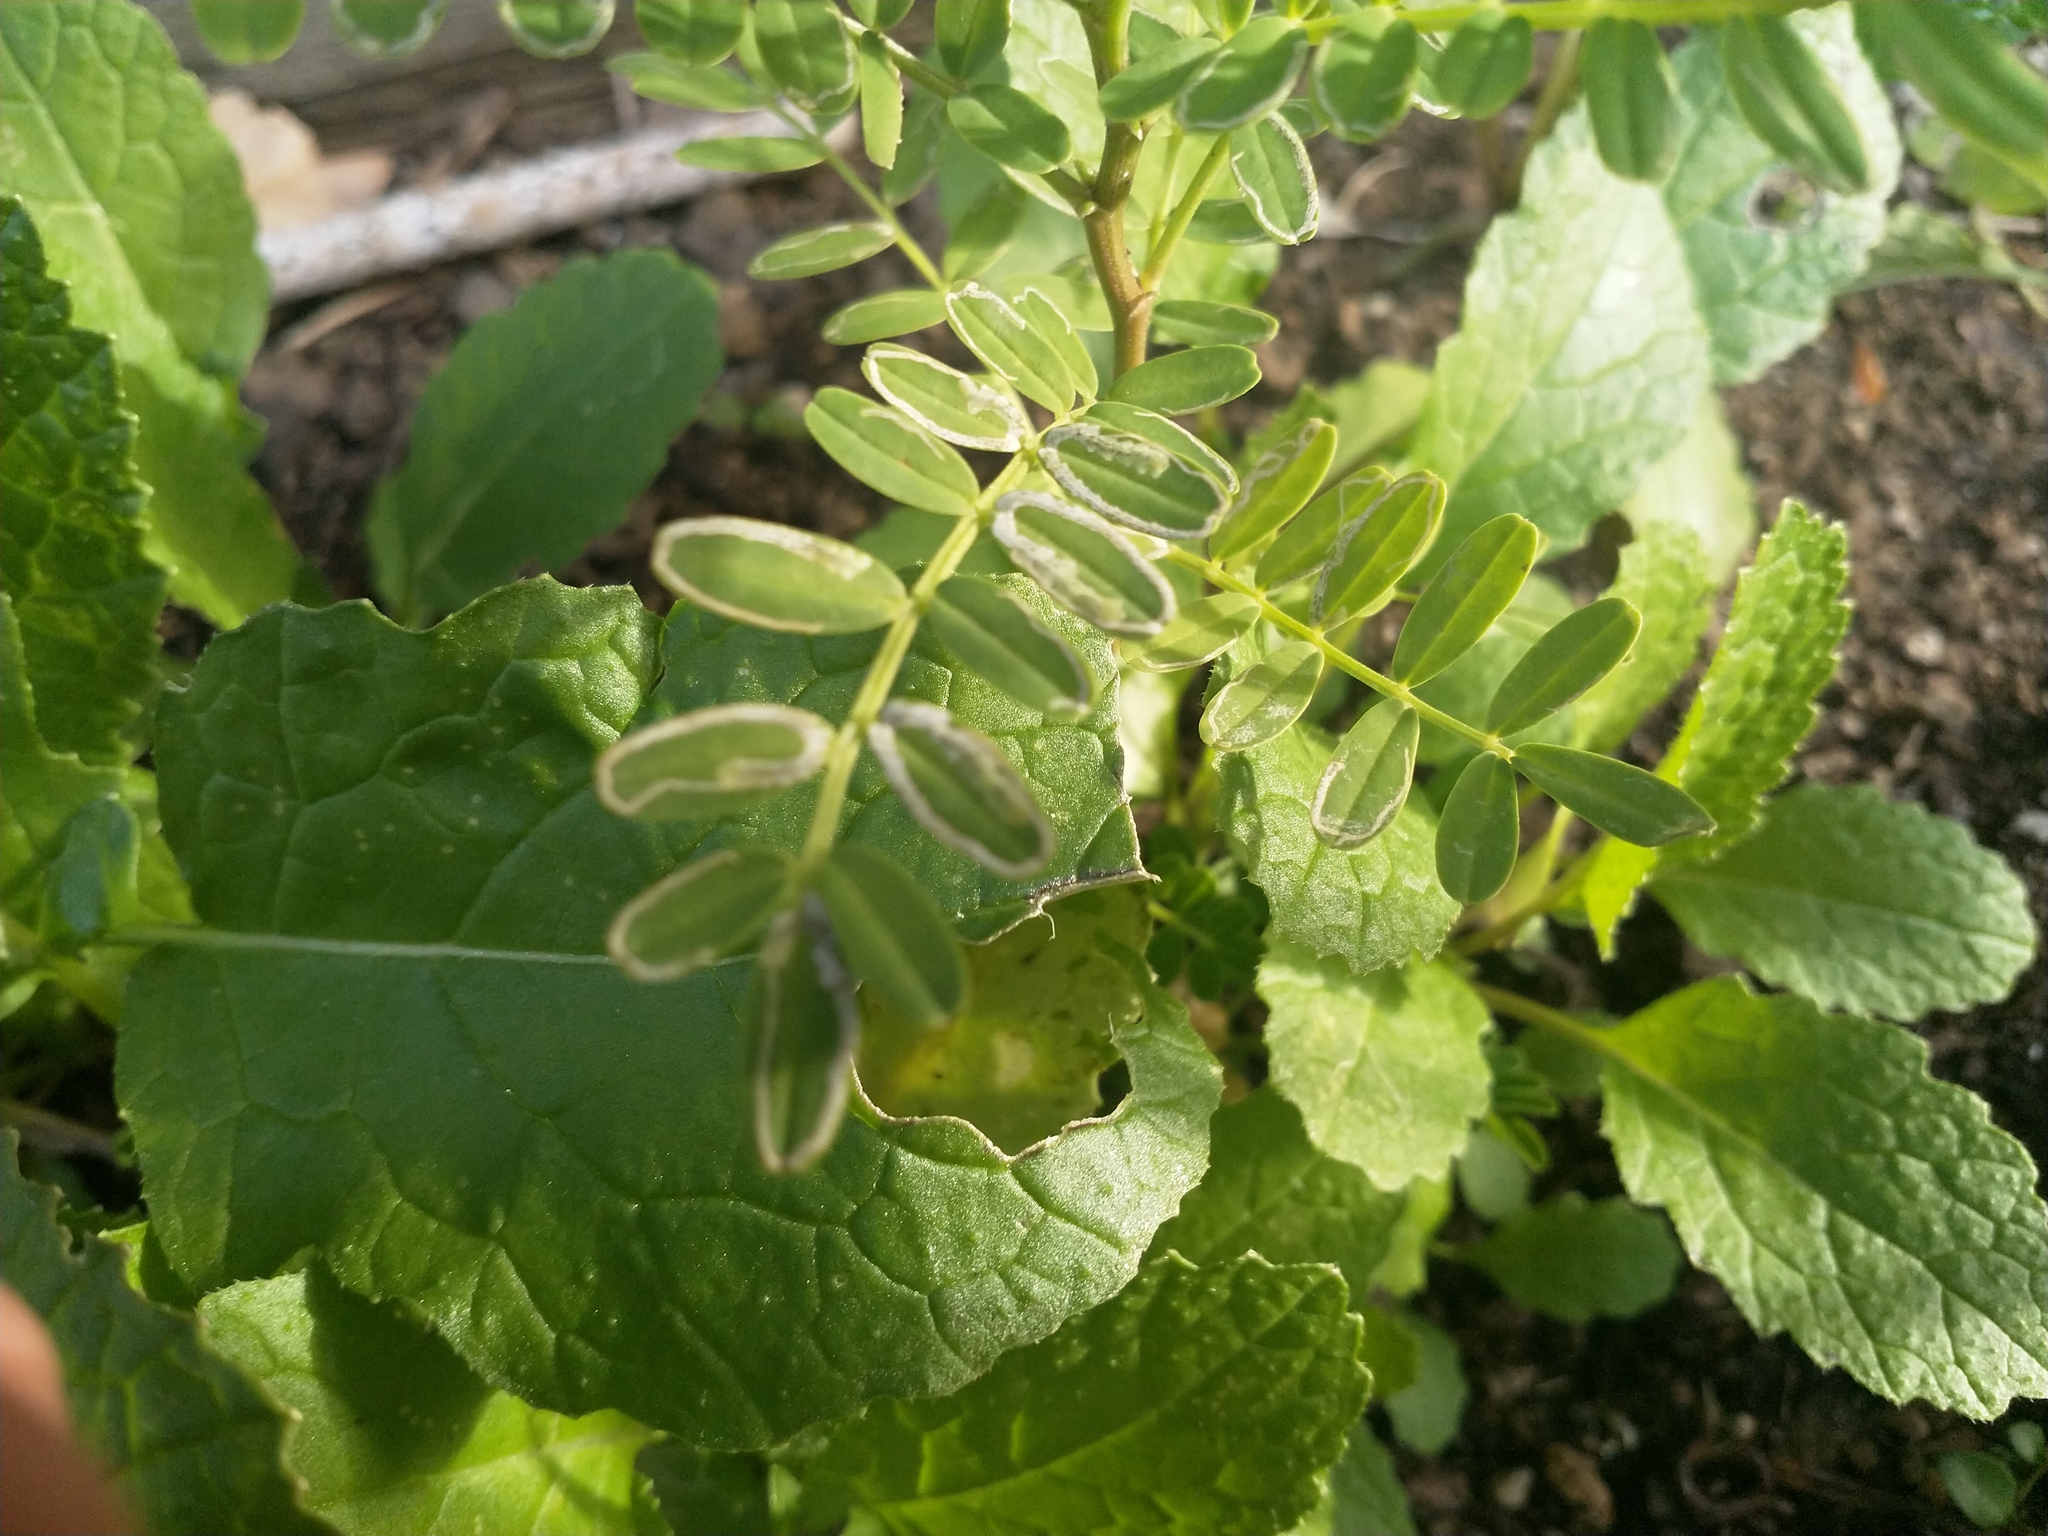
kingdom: Animalia
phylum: Arthropoda
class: Insecta
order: Diptera
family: Agromyzidae
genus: Liriomyza
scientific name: Liriomyza clianthi
